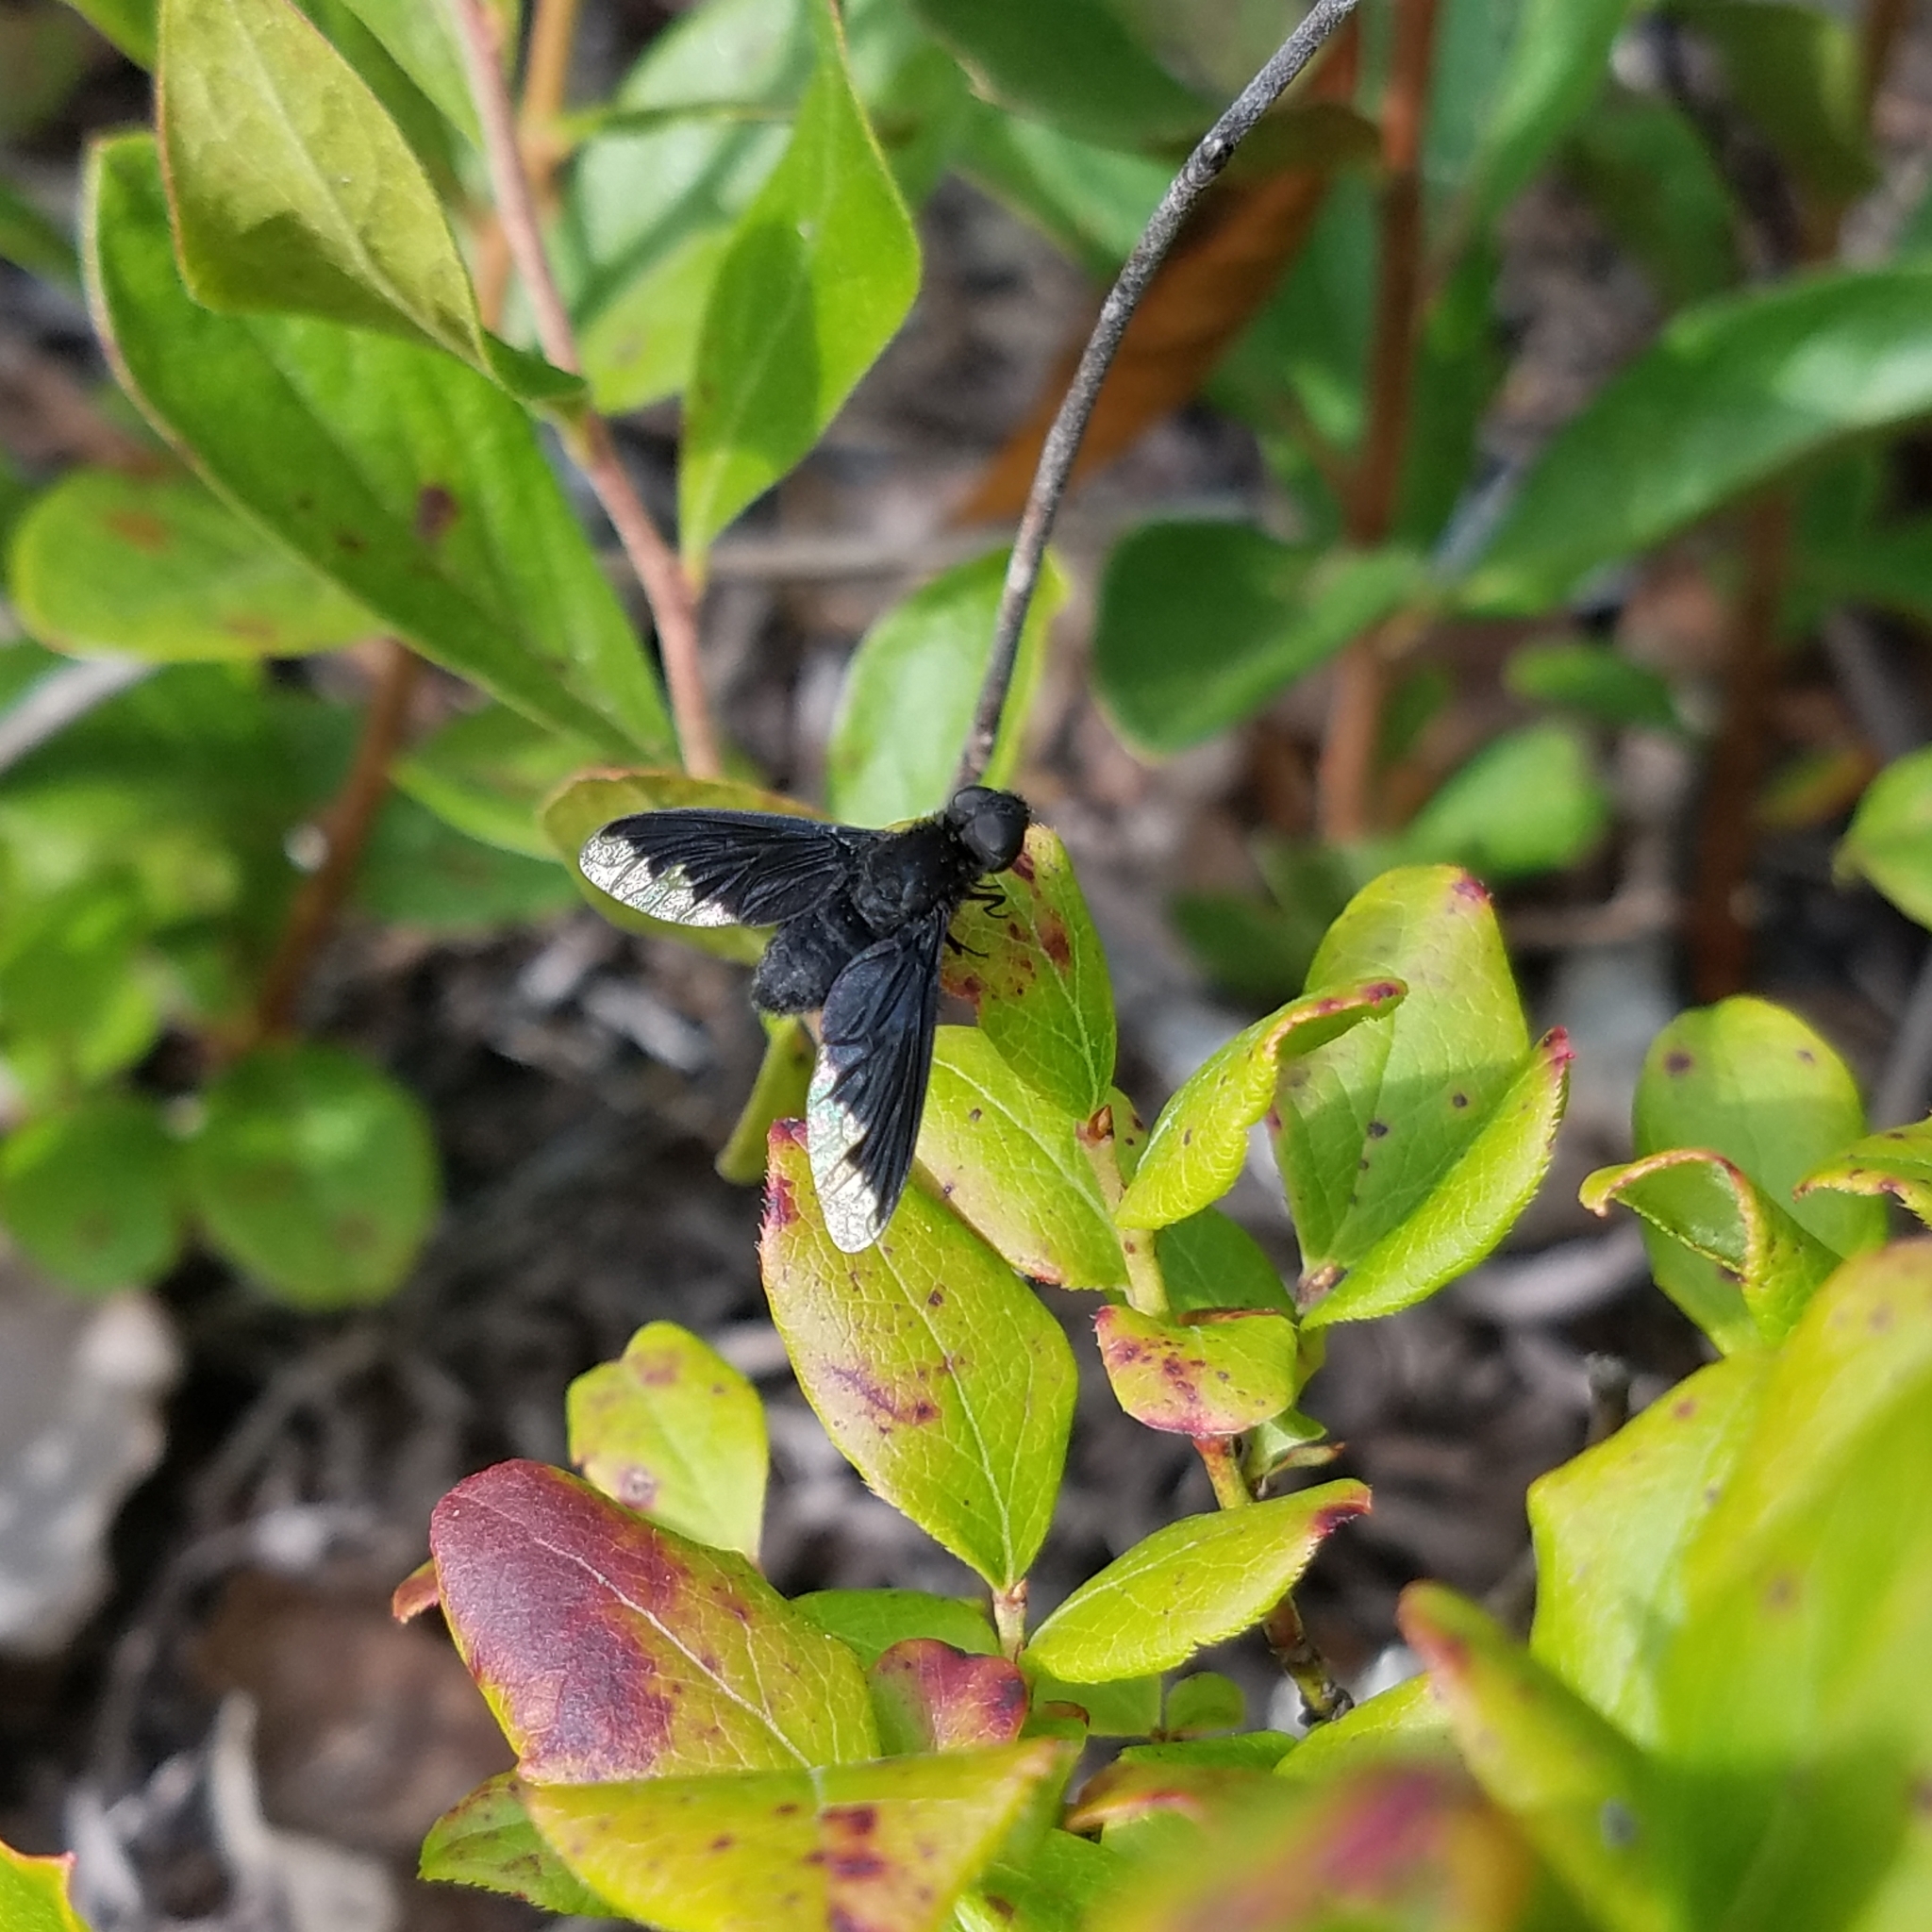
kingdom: Animalia
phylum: Arthropoda
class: Insecta
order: Diptera
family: Bombyliidae
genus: Anthrax
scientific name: Anthrax analis
